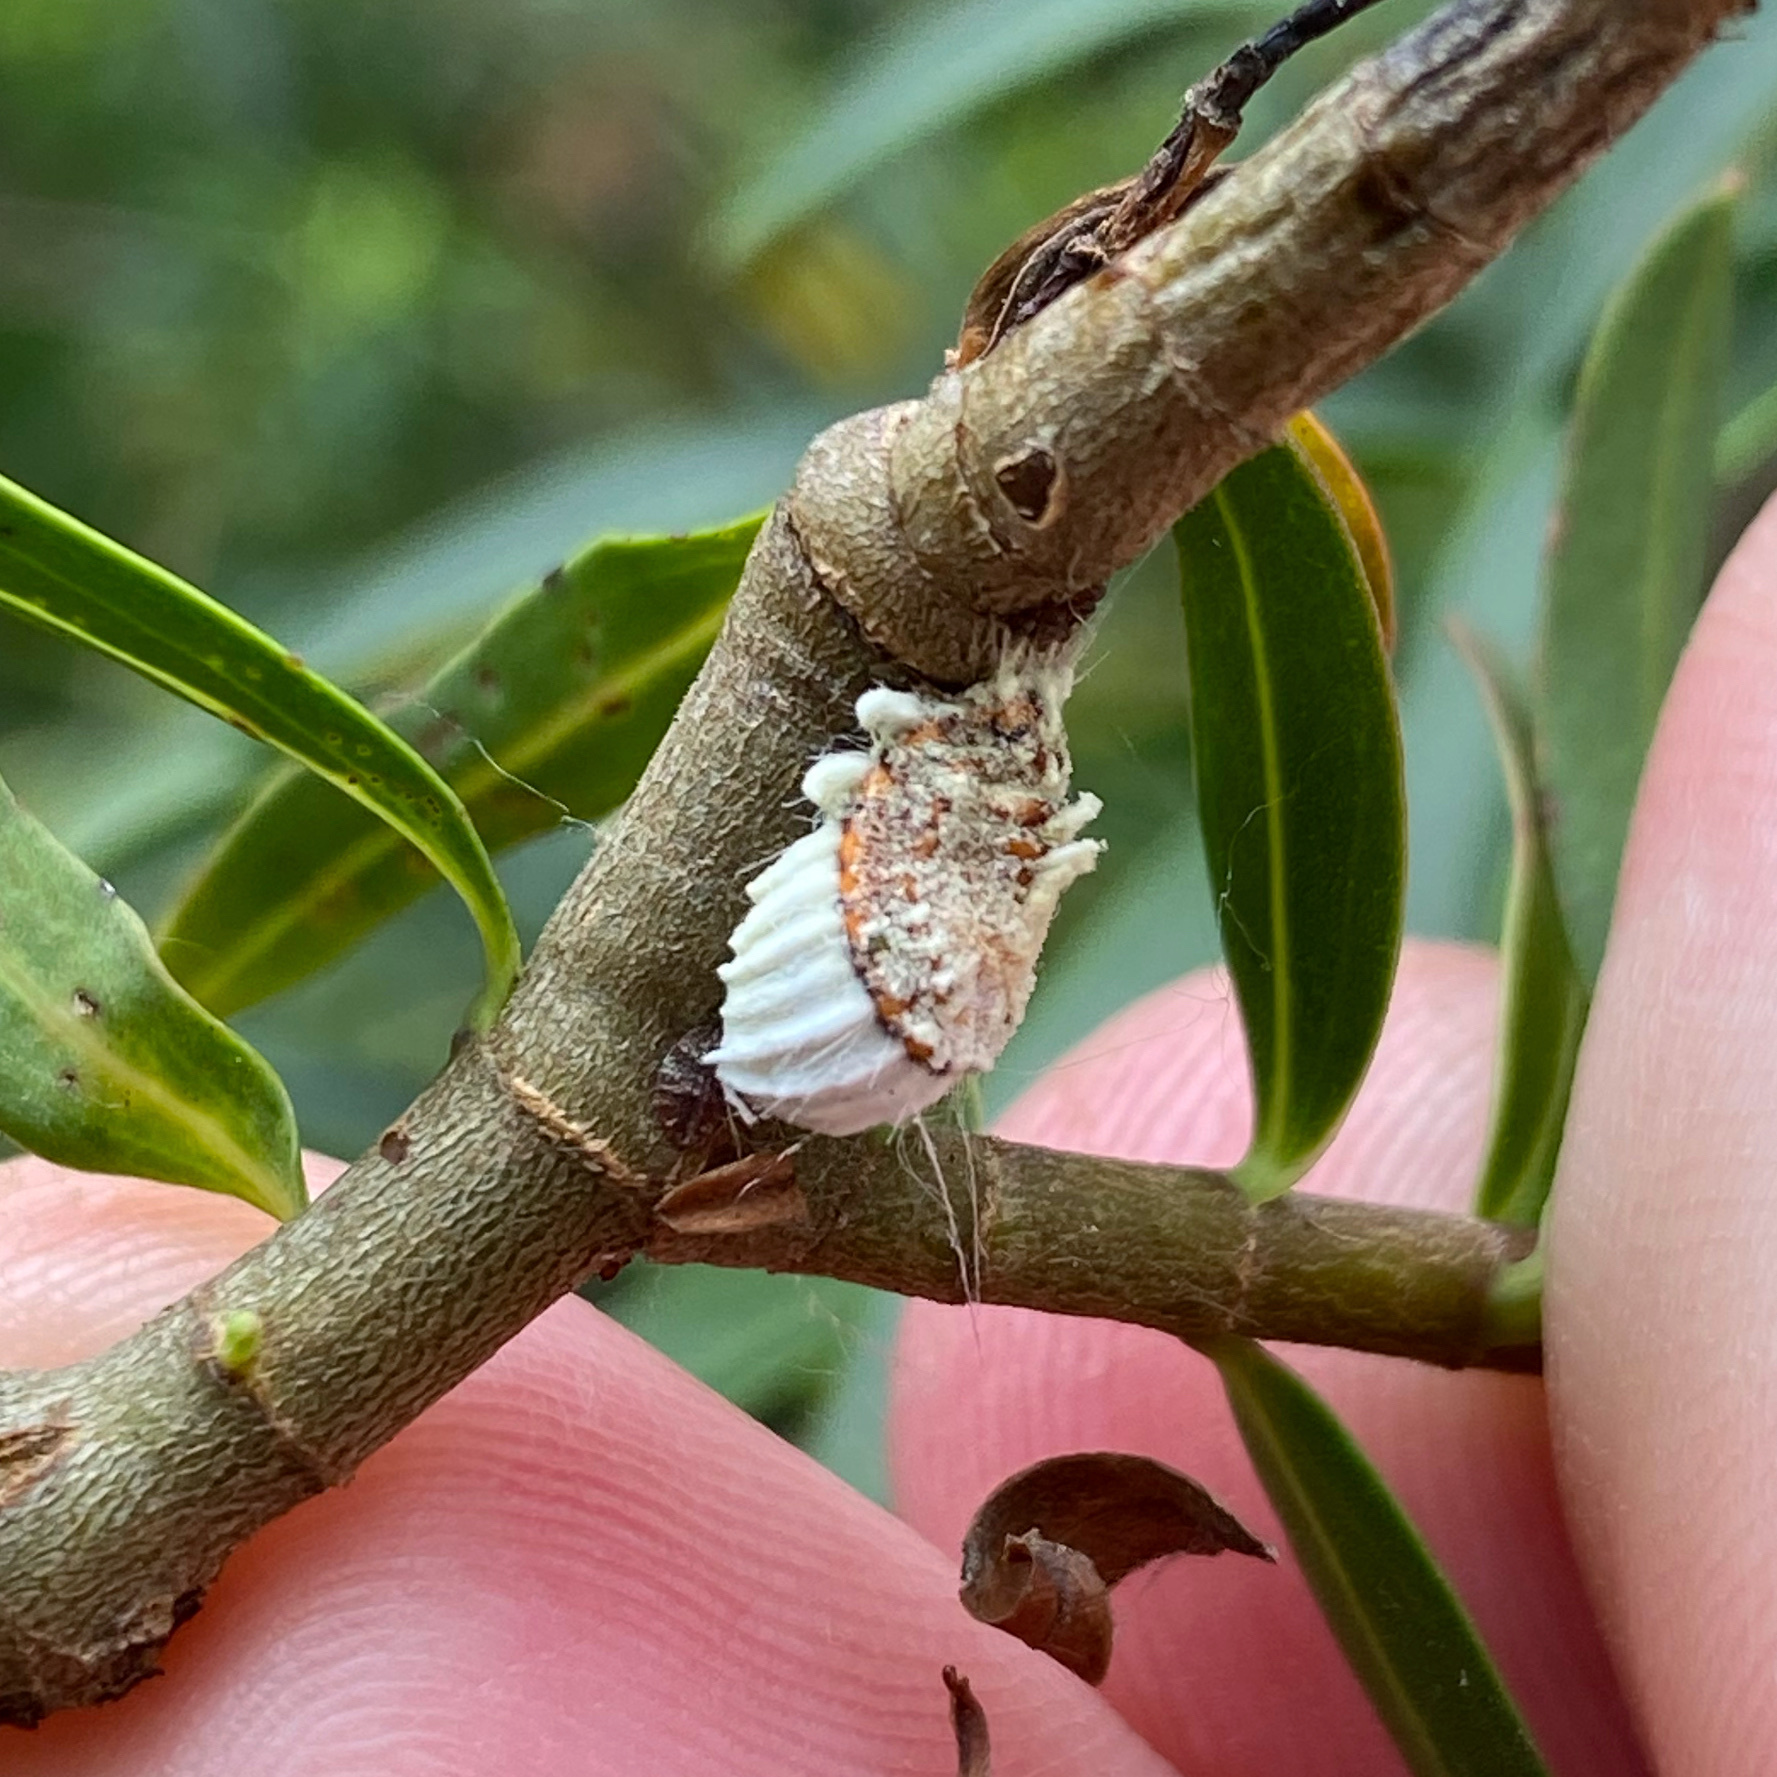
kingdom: Animalia
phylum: Arthropoda
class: Insecta
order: Hemiptera
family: Margarodidae
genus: Icerya
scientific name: Icerya purchasi
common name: Cottony cushion scale
